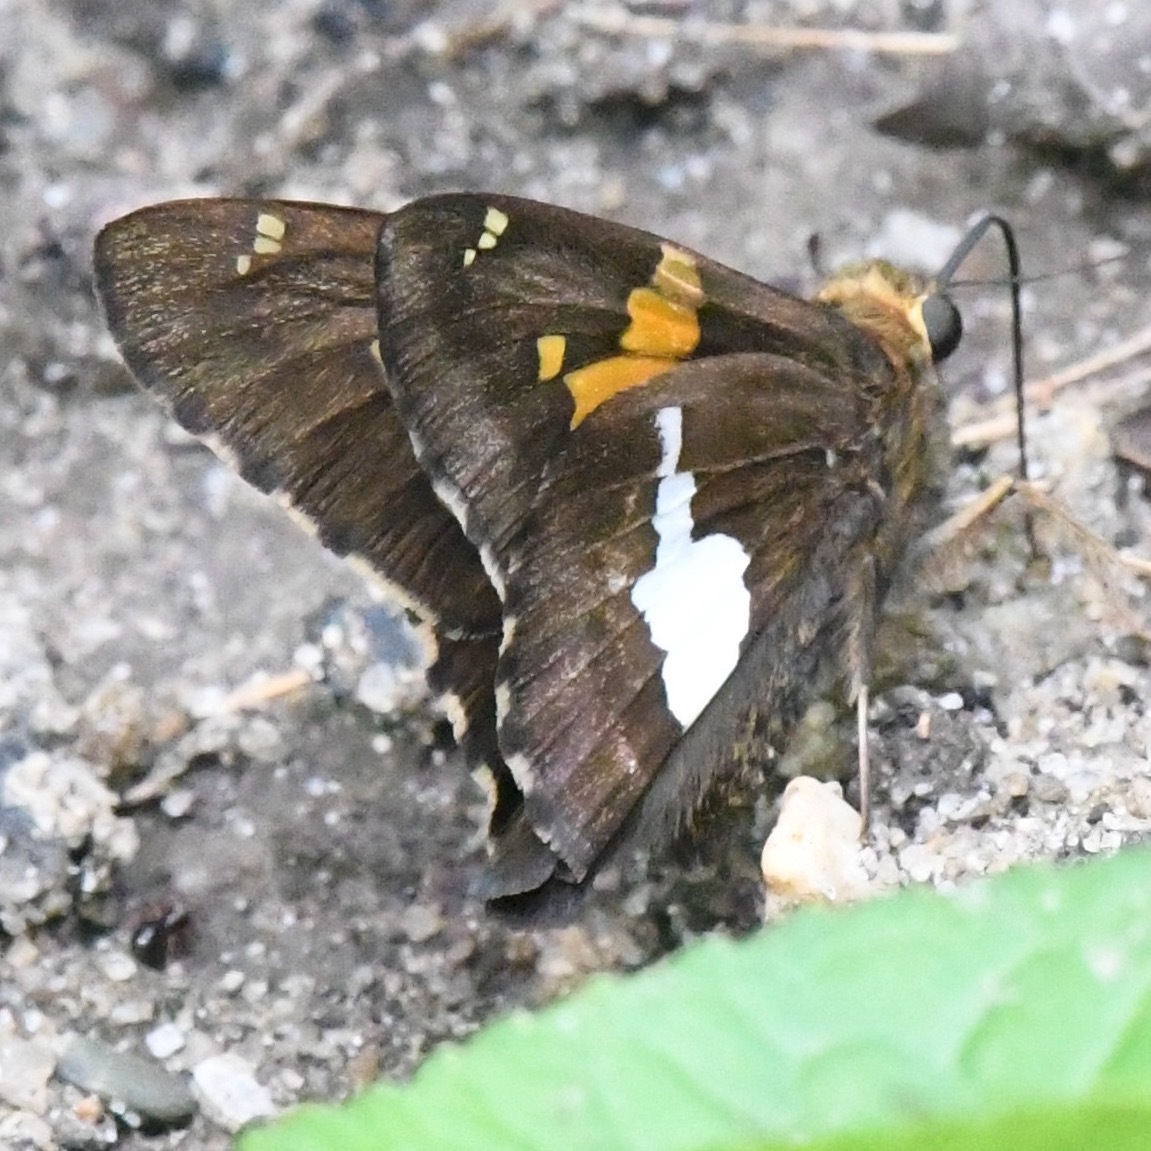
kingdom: Animalia
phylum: Arthropoda
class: Insecta
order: Lepidoptera
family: Hesperiidae
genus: Epargyreus
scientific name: Epargyreus clarus
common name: Silver-spotted skipper
